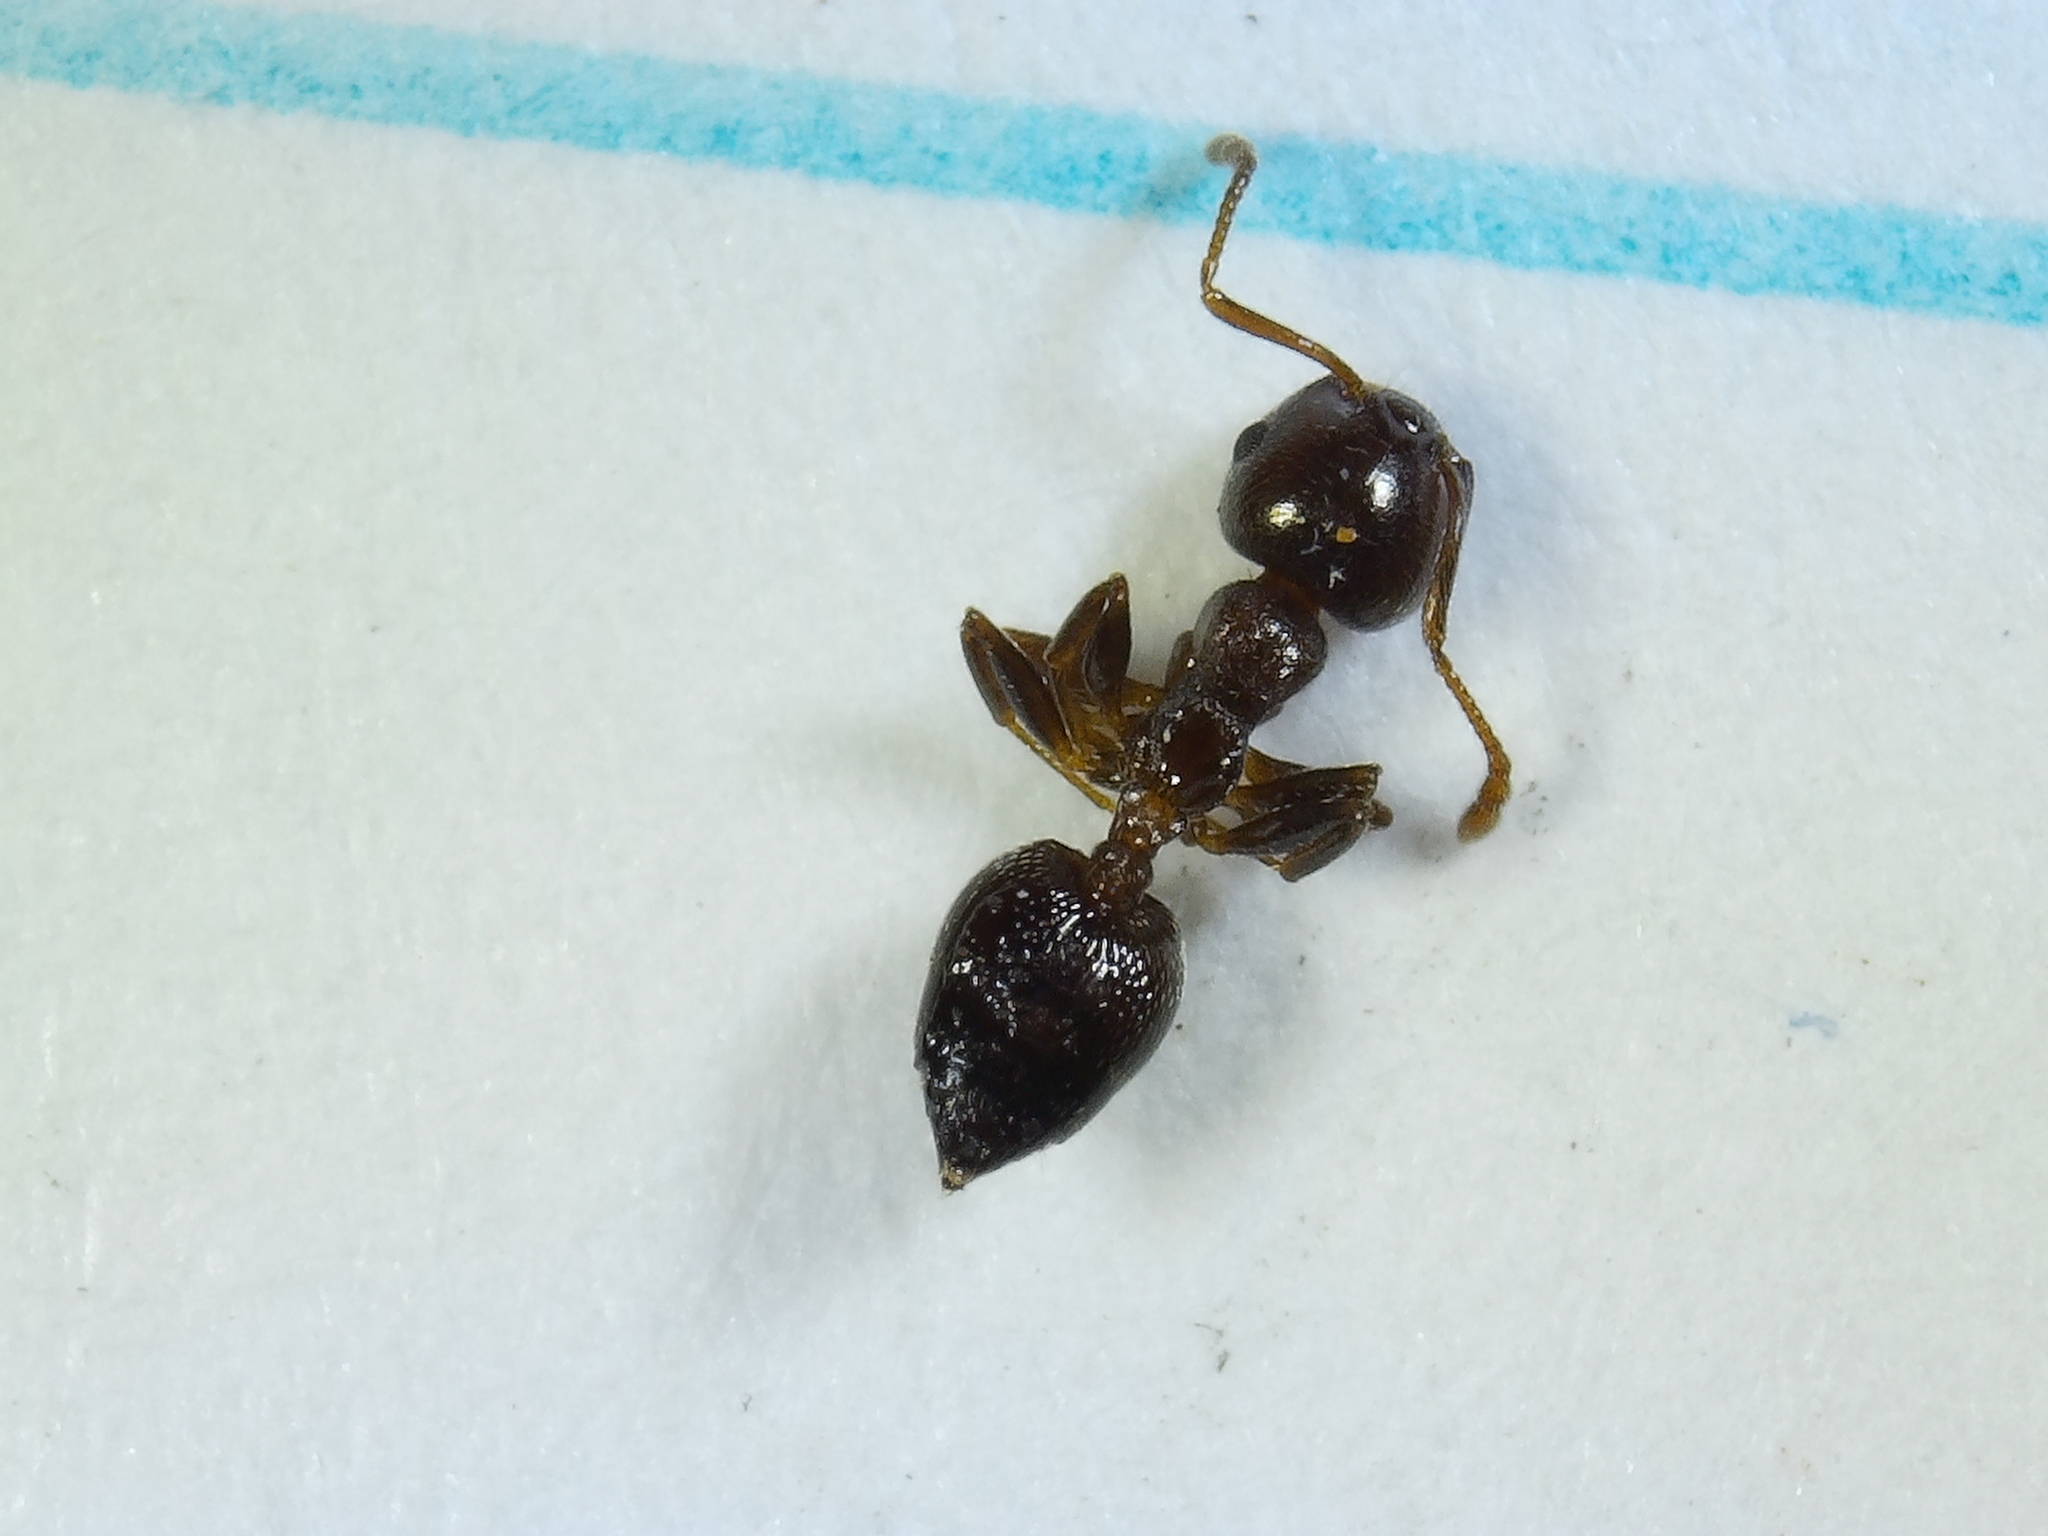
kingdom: Animalia
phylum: Arthropoda
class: Insecta
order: Hymenoptera
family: Formicidae
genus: Crematogaster
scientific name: Crematogaster ashmeadi
